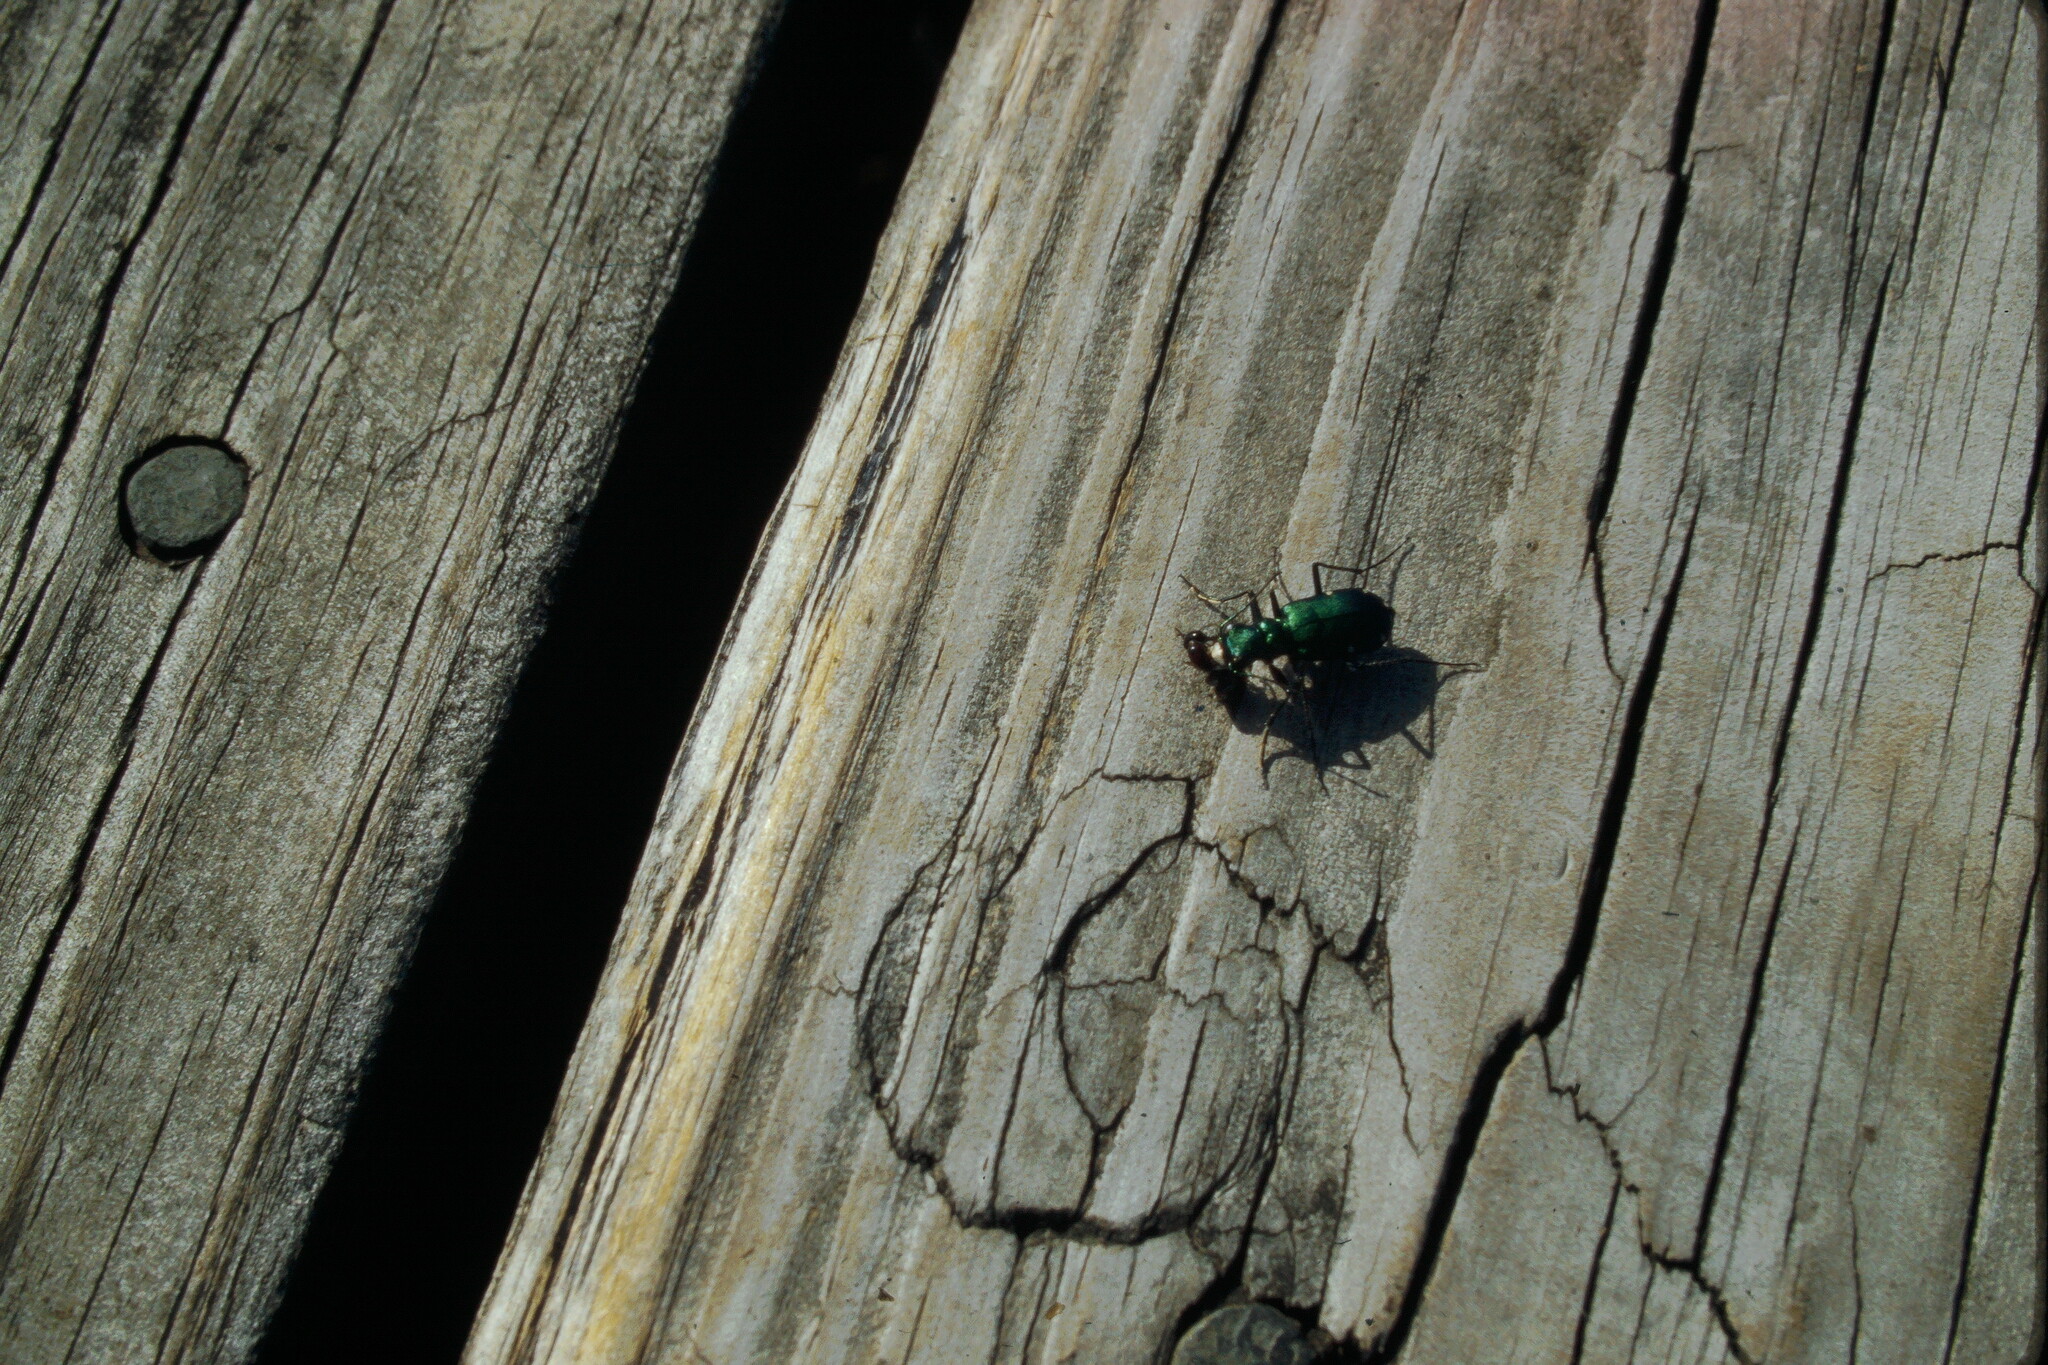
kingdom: Animalia
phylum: Arthropoda
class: Insecta
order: Coleoptera
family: Carabidae
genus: Cicindela
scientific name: Cicindela sexguttata
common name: Six-spotted tiger beetle
